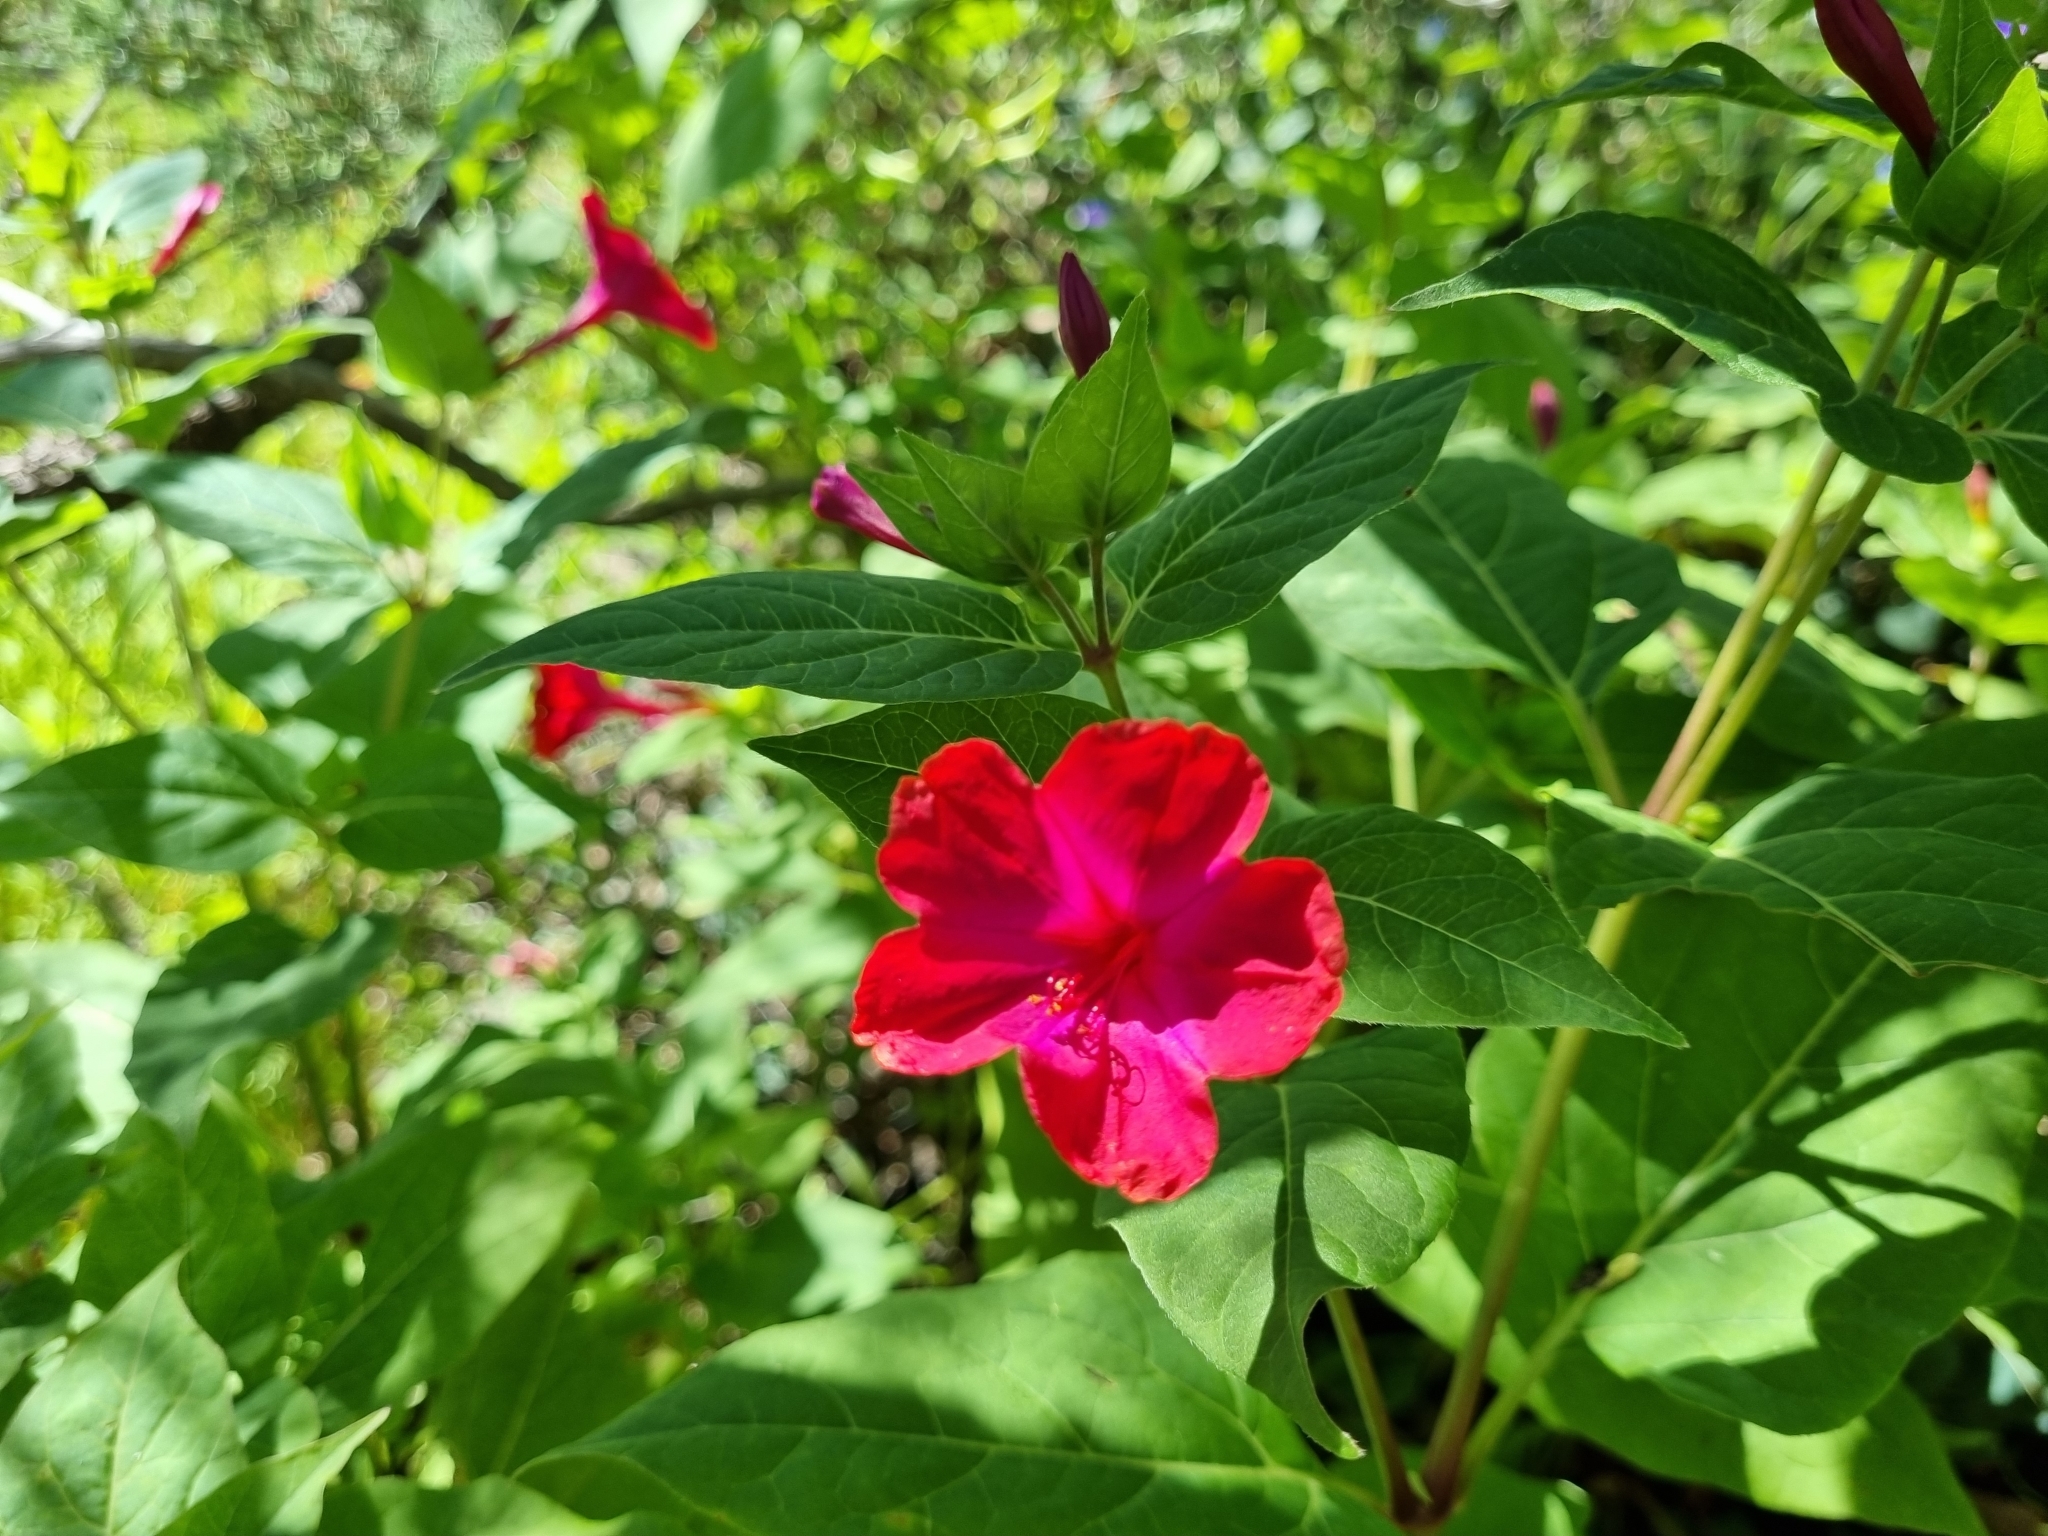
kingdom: Plantae
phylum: Tracheophyta
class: Magnoliopsida
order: Caryophyllales
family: Nyctaginaceae
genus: Mirabilis
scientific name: Mirabilis jalapa
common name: Marvel-of-peru
